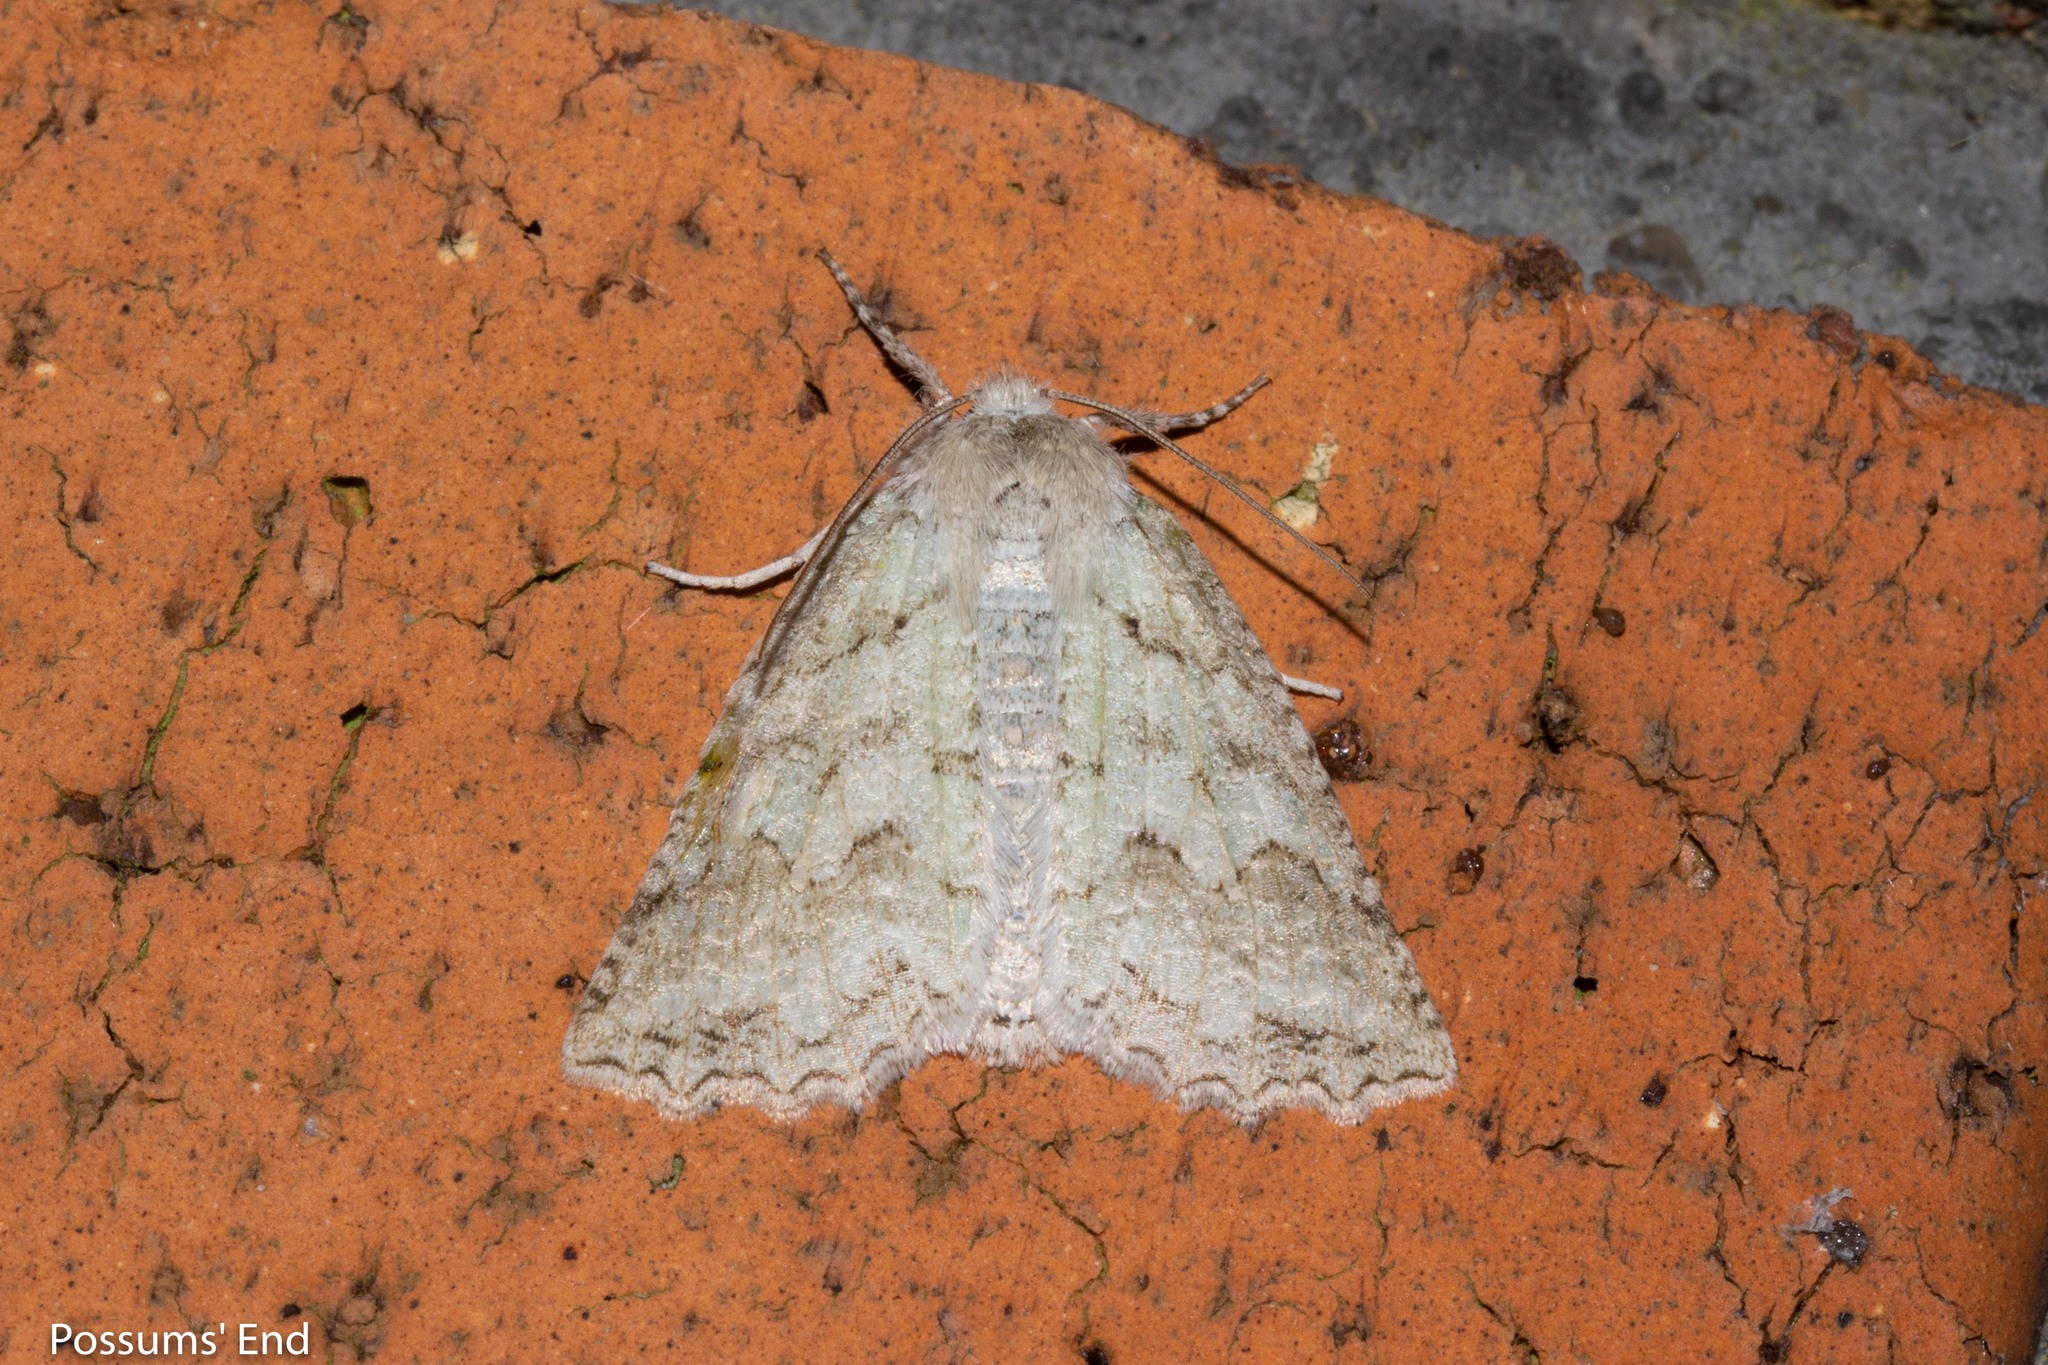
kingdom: Animalia
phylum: Arthropoda
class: Insecta
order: Lepidoptera
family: Geometridae
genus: Declana
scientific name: Declana niveata
